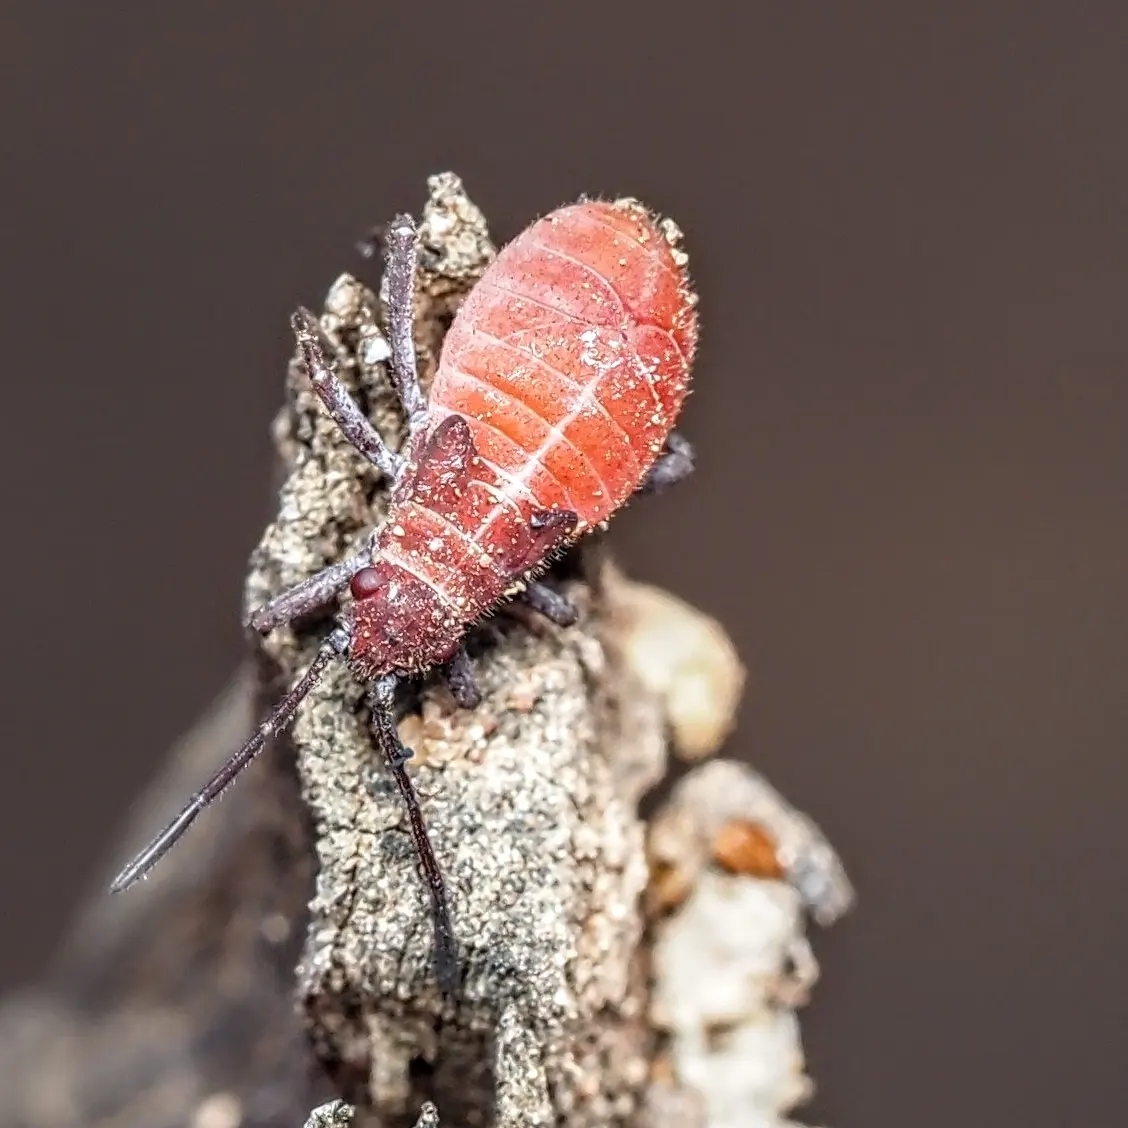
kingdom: Animalia
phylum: Arthropoda
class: Insecta
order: Hemiptera
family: Rhopalidae
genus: Leptocoris
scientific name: Leptocoris mitellatus
